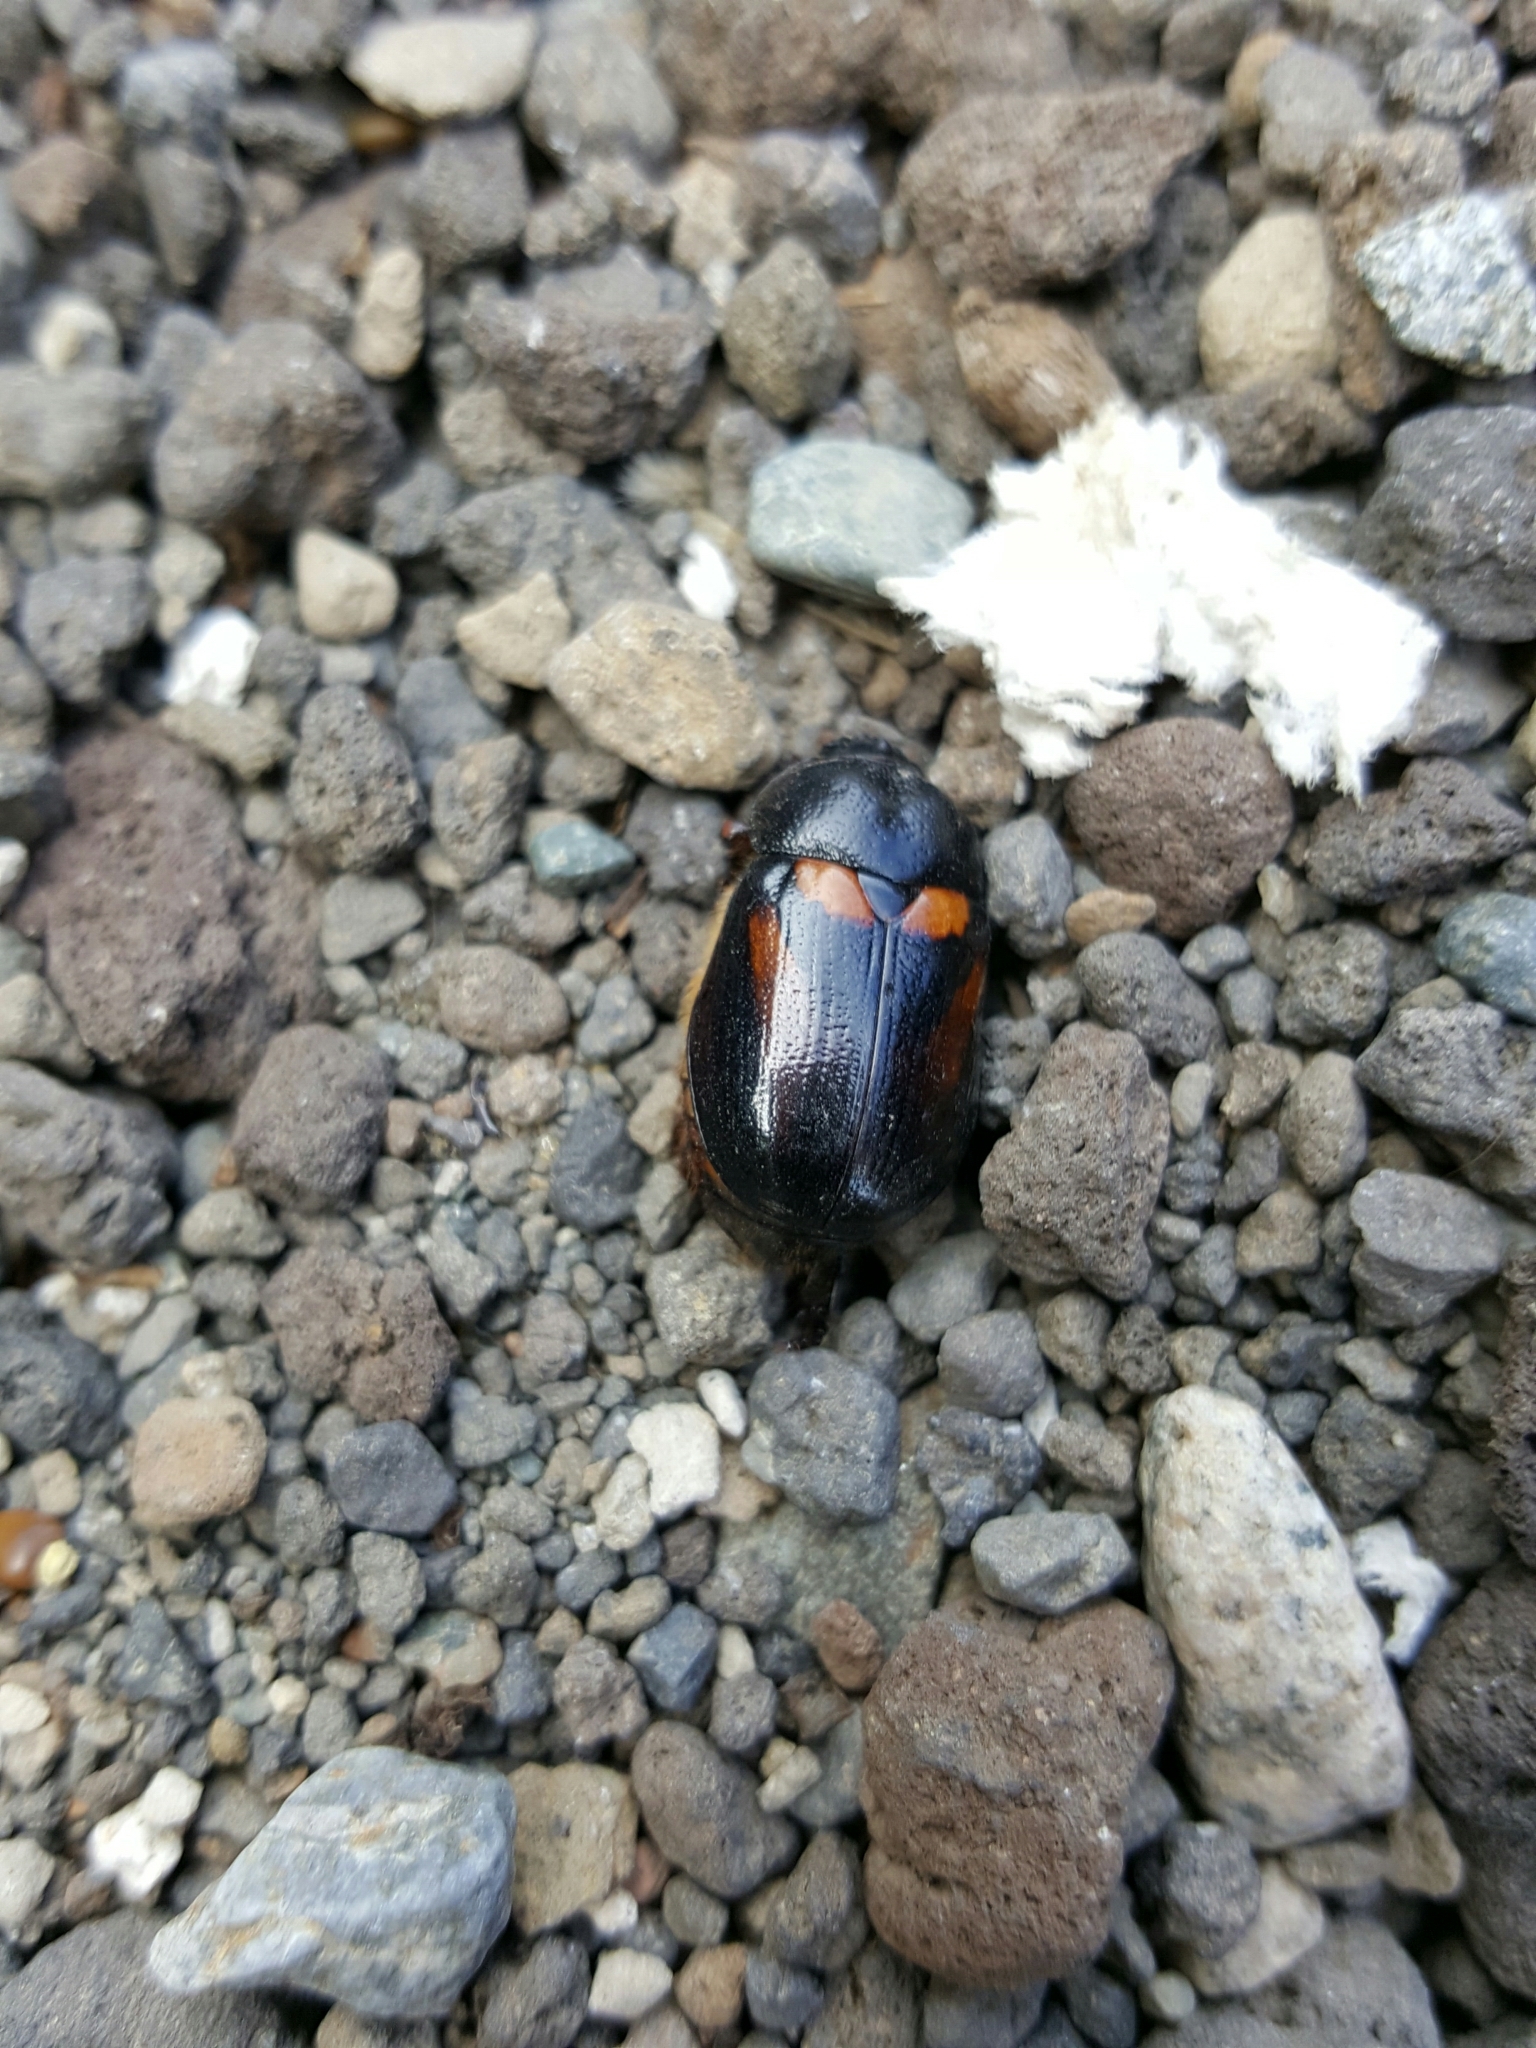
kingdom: Animalia
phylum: Arthropoda
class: Insecta
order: Coleoptera
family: Scarabaeidae
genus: Oryctomorphus
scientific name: Oryctomorphus bimaculatus
